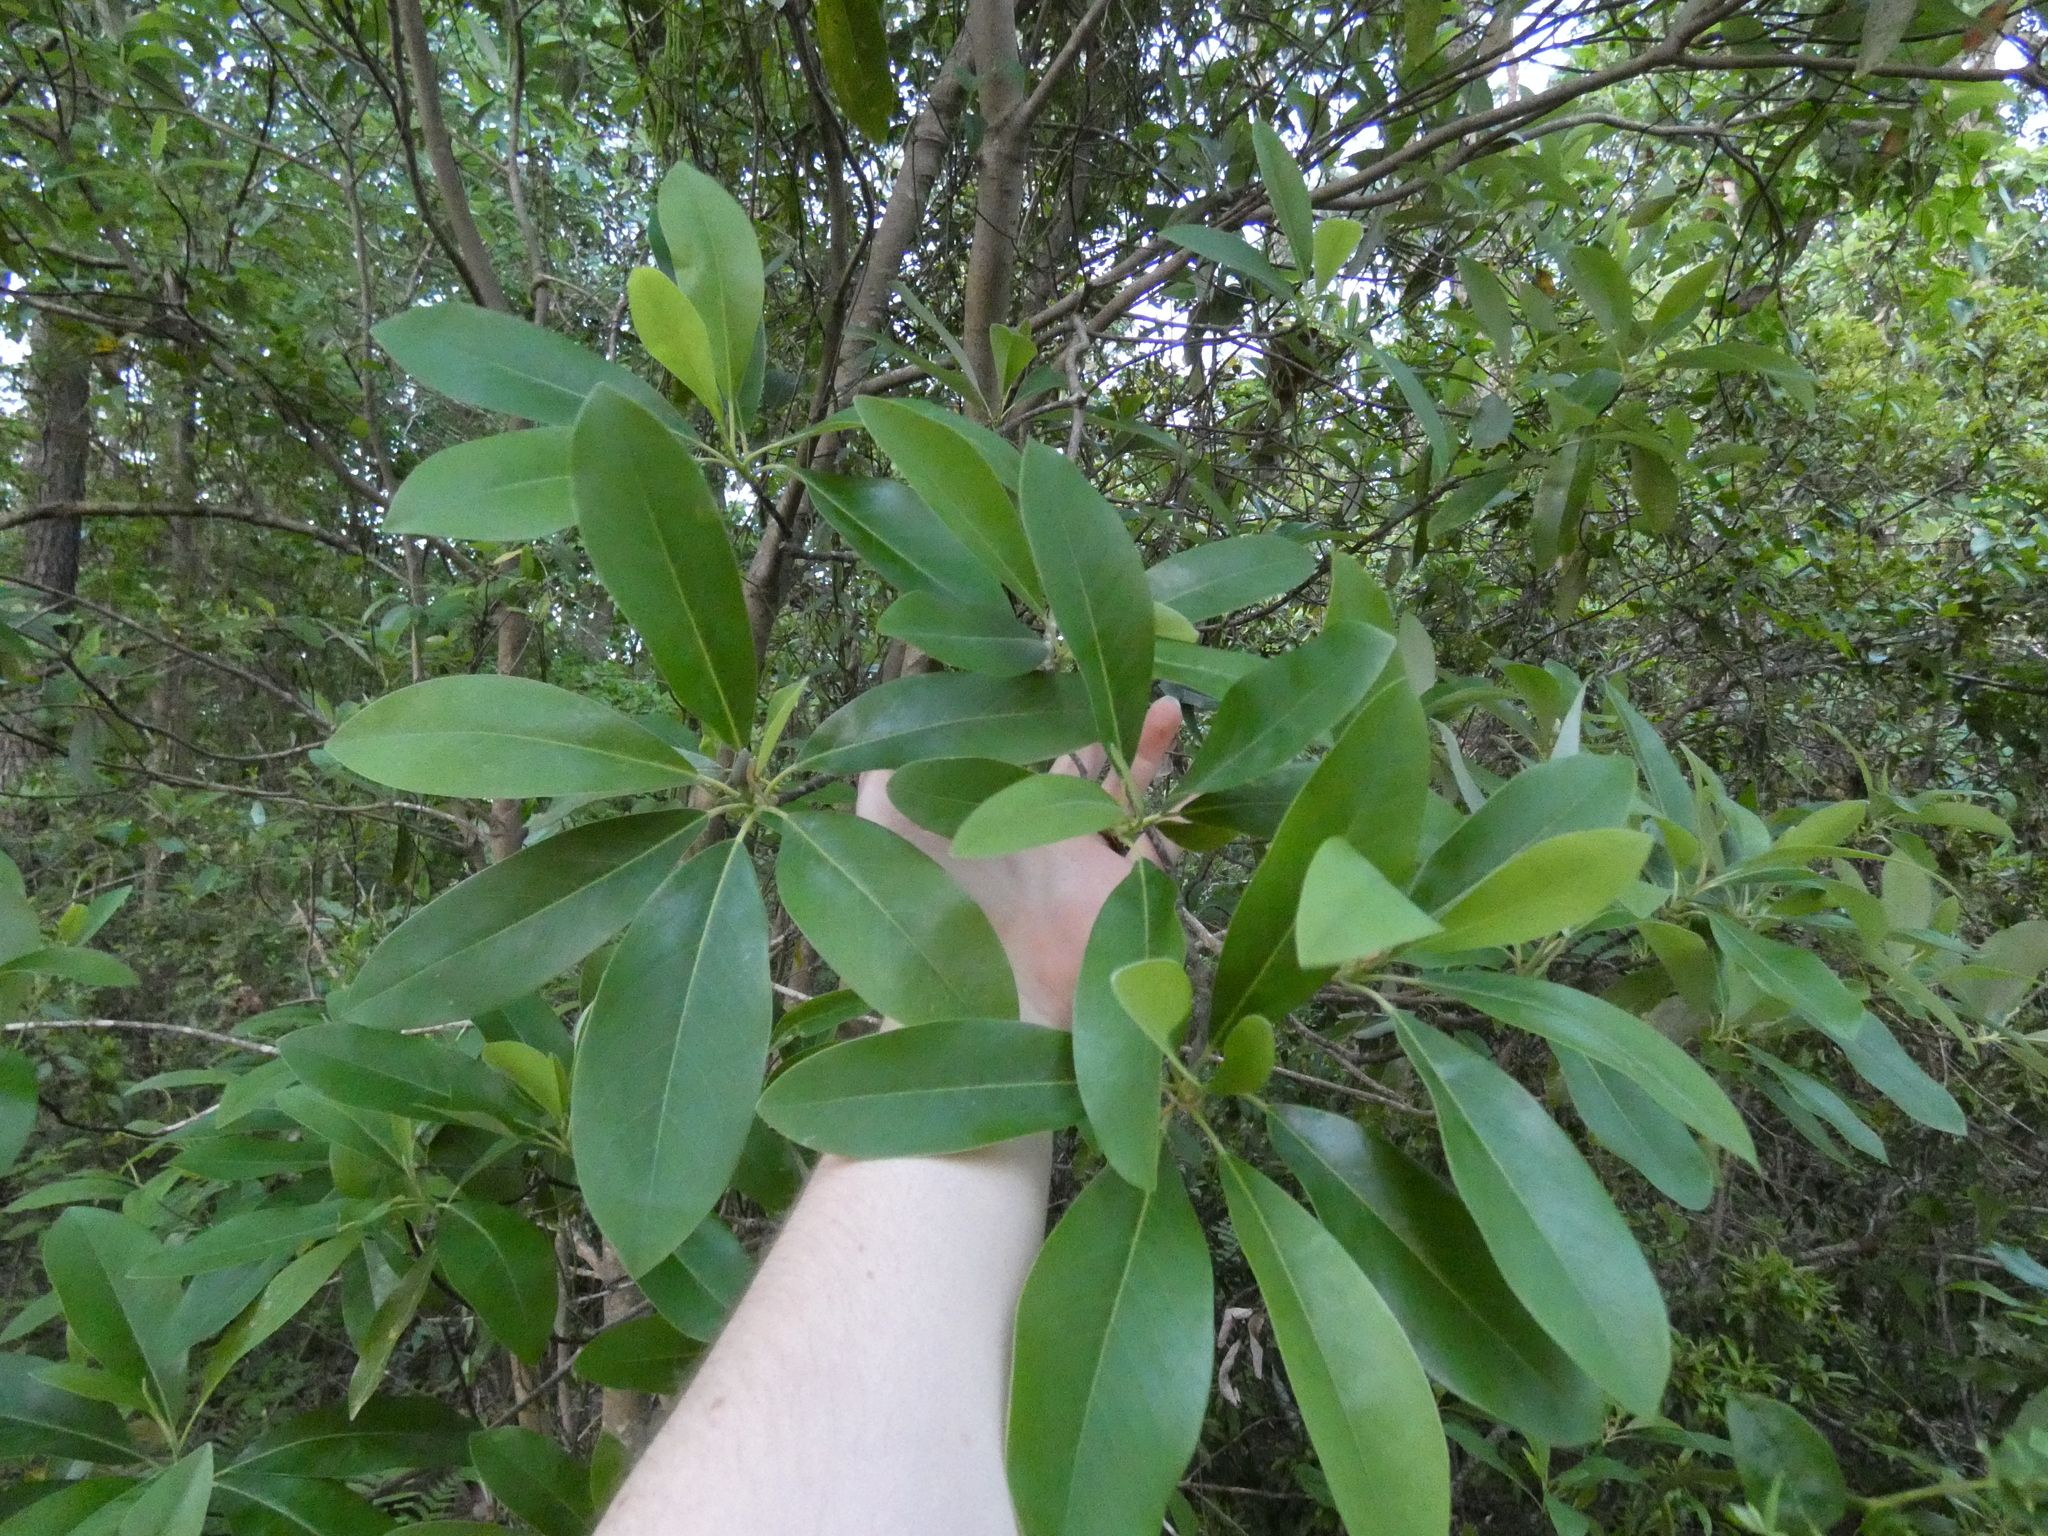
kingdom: Plantae
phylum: Tracheophyta
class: Magnoliopsida
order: Magnoliales
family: Magnoliaceae
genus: Magnolia
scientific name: Magnolia virginiana
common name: Swamp bay
